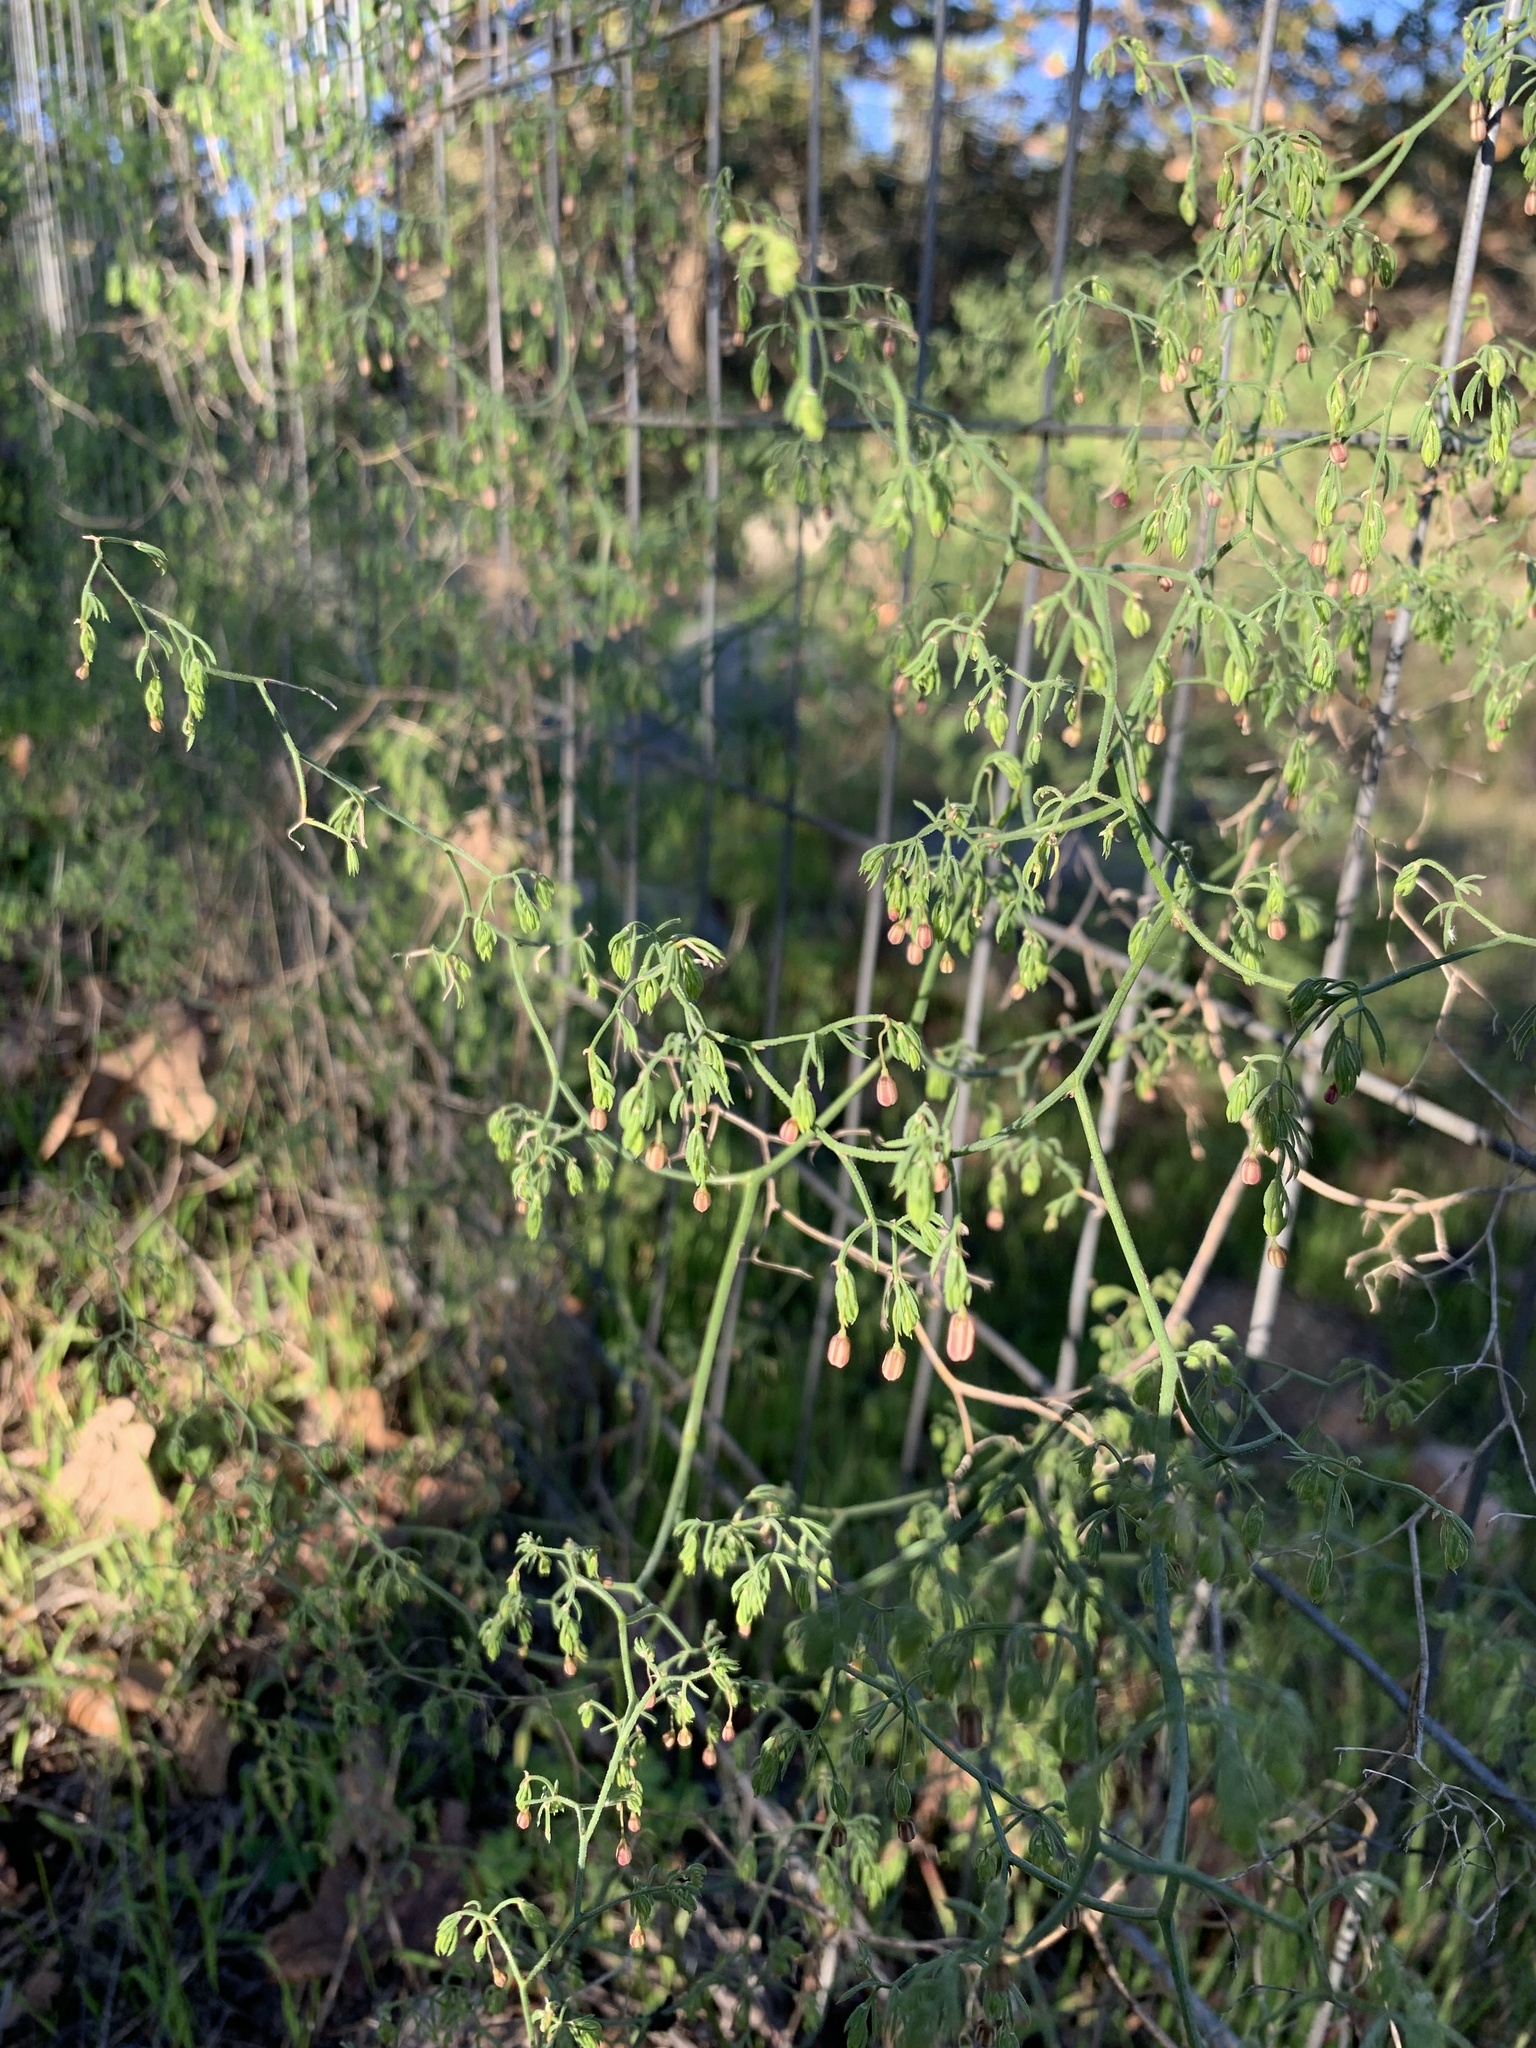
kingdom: Plantae
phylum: Tracheophyta
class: Liliopsida
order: Asparagales
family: Asparagaceae
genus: Asparagus
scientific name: Asparagus declinatus
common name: Bridal-creeper
